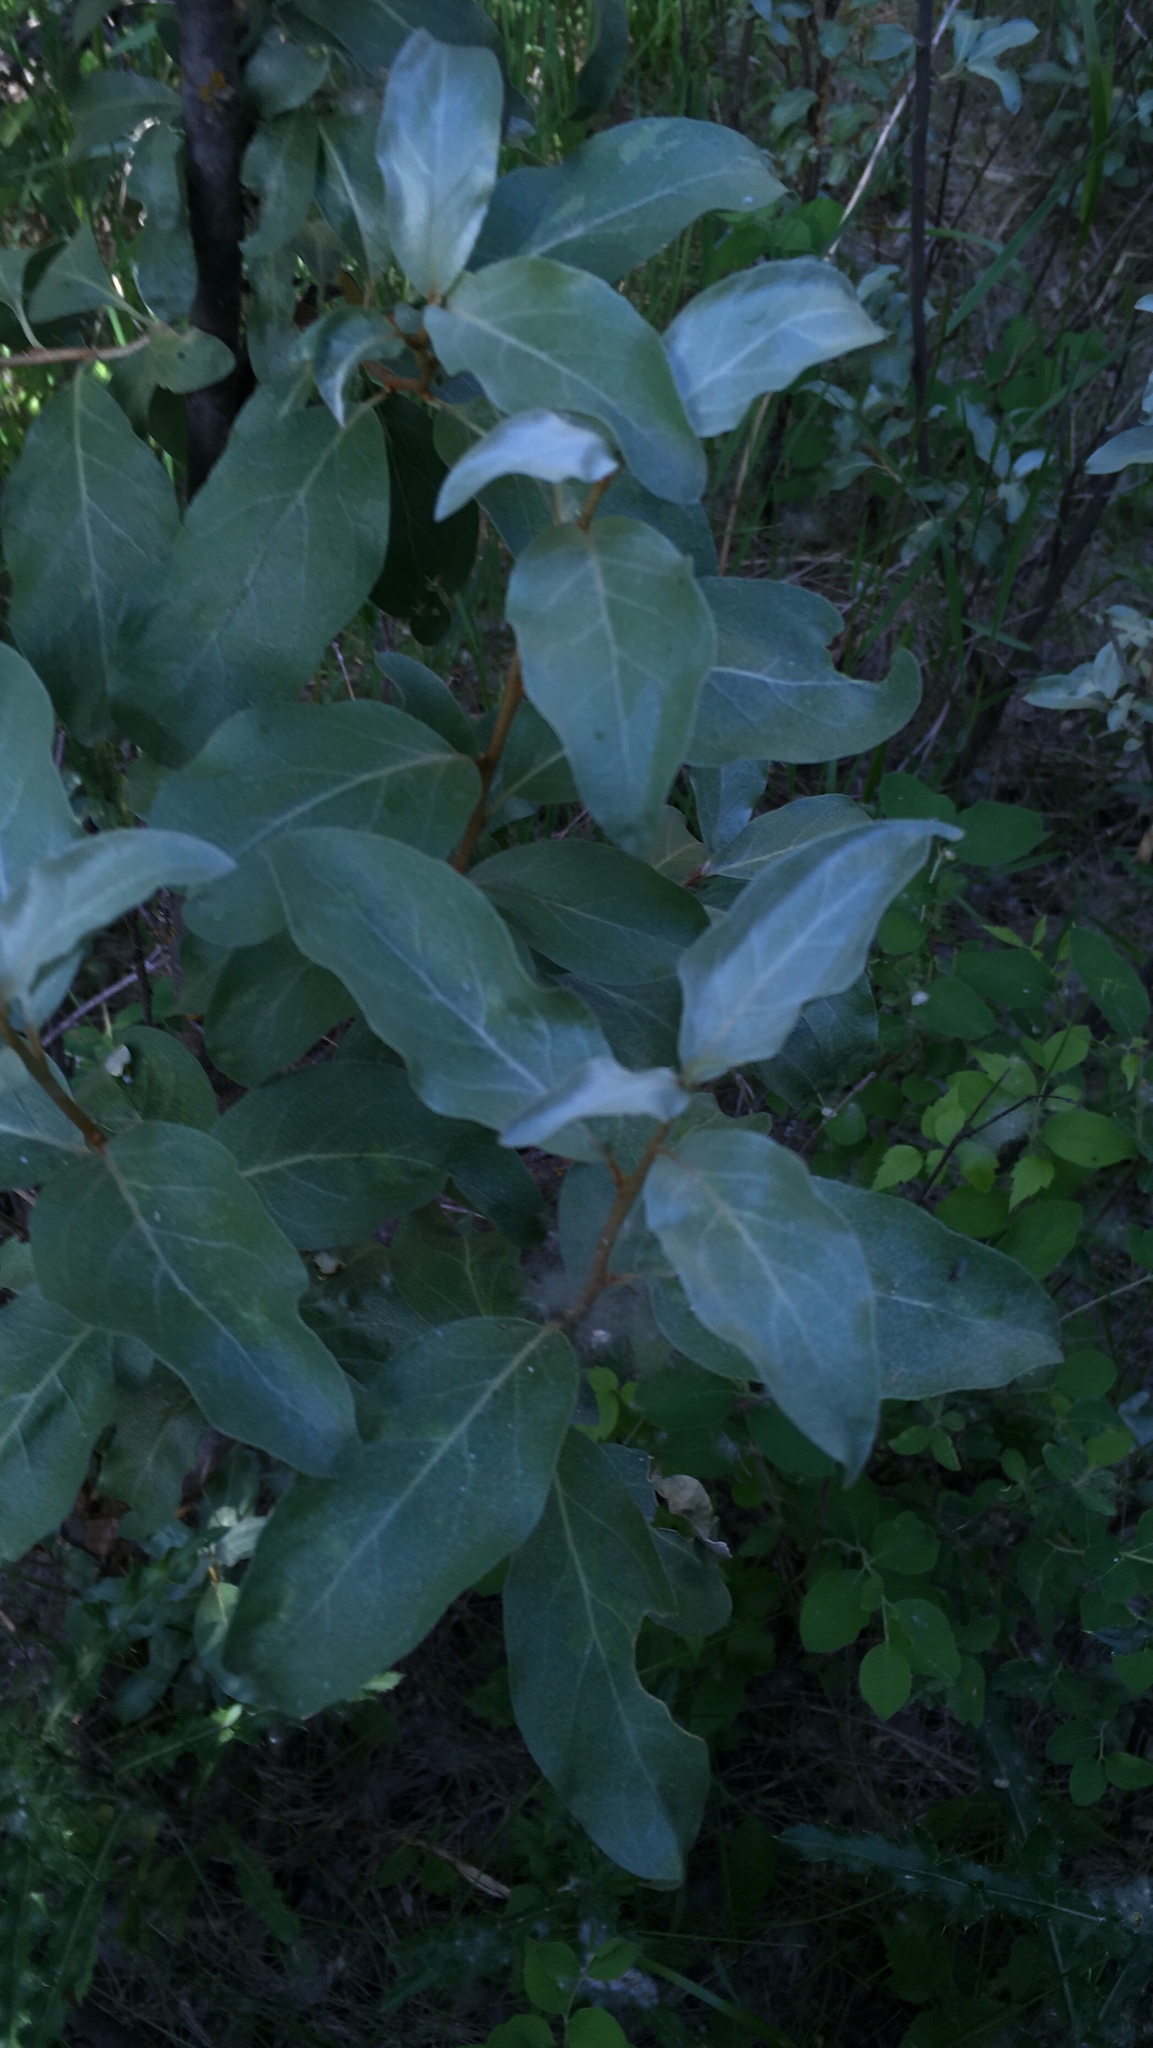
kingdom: Plantae
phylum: Tracheophyta
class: Magnoliopsida
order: Rosales
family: Elaeagnaceae
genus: Elaeagnus
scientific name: Elaeagnus commutata
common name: Silverberry
